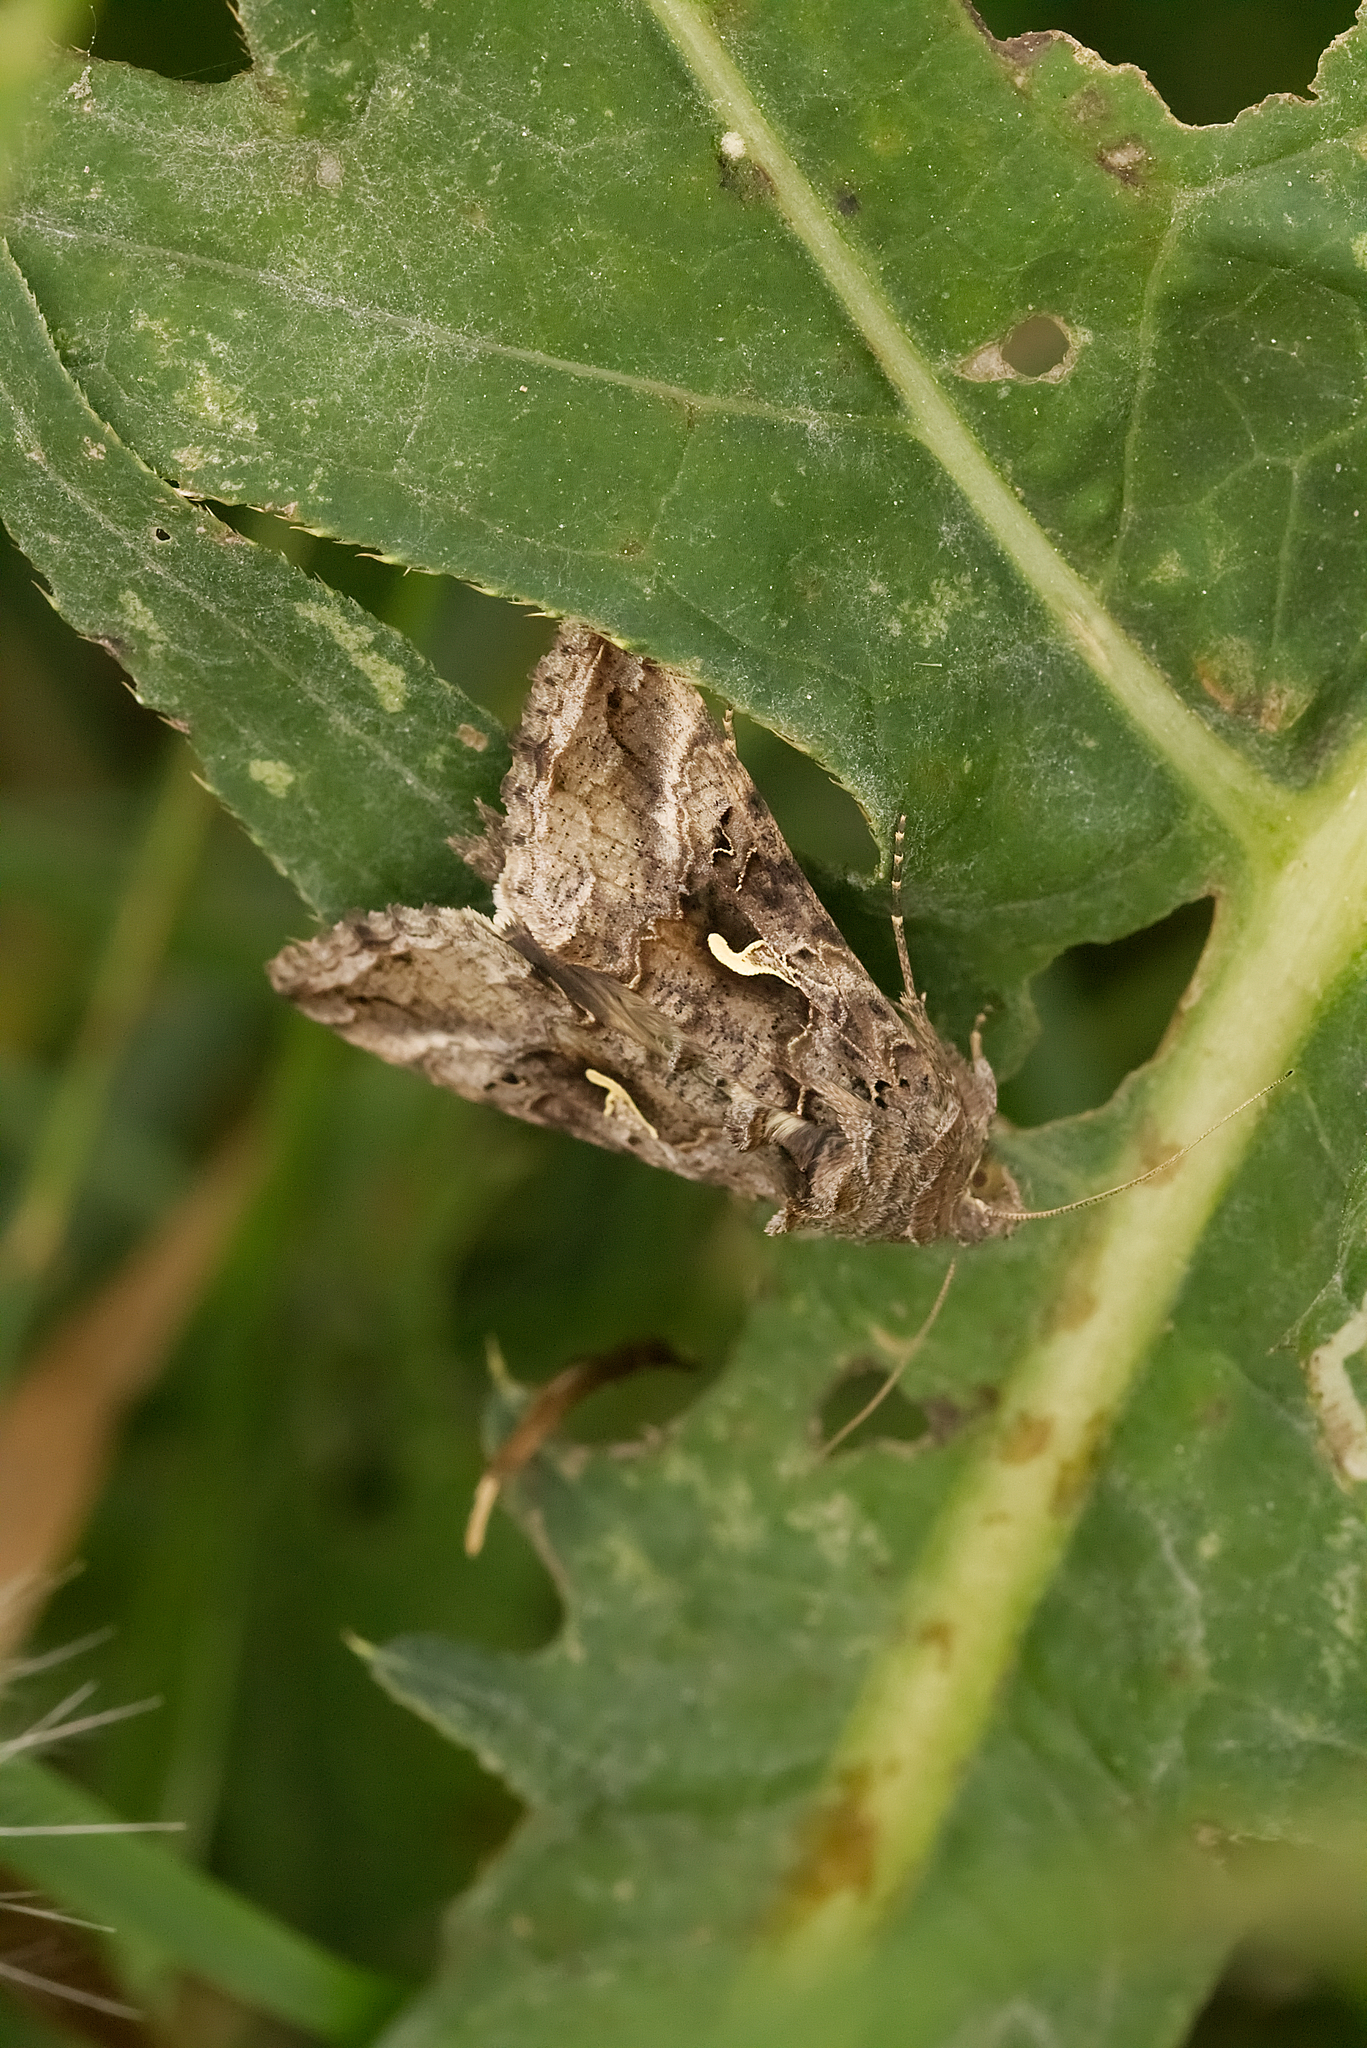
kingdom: Animalia
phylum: Arthropoda
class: Insecta
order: Lepidoptera
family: Noctuidae
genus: Autographa
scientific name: Autographa gamma
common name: Silver y
